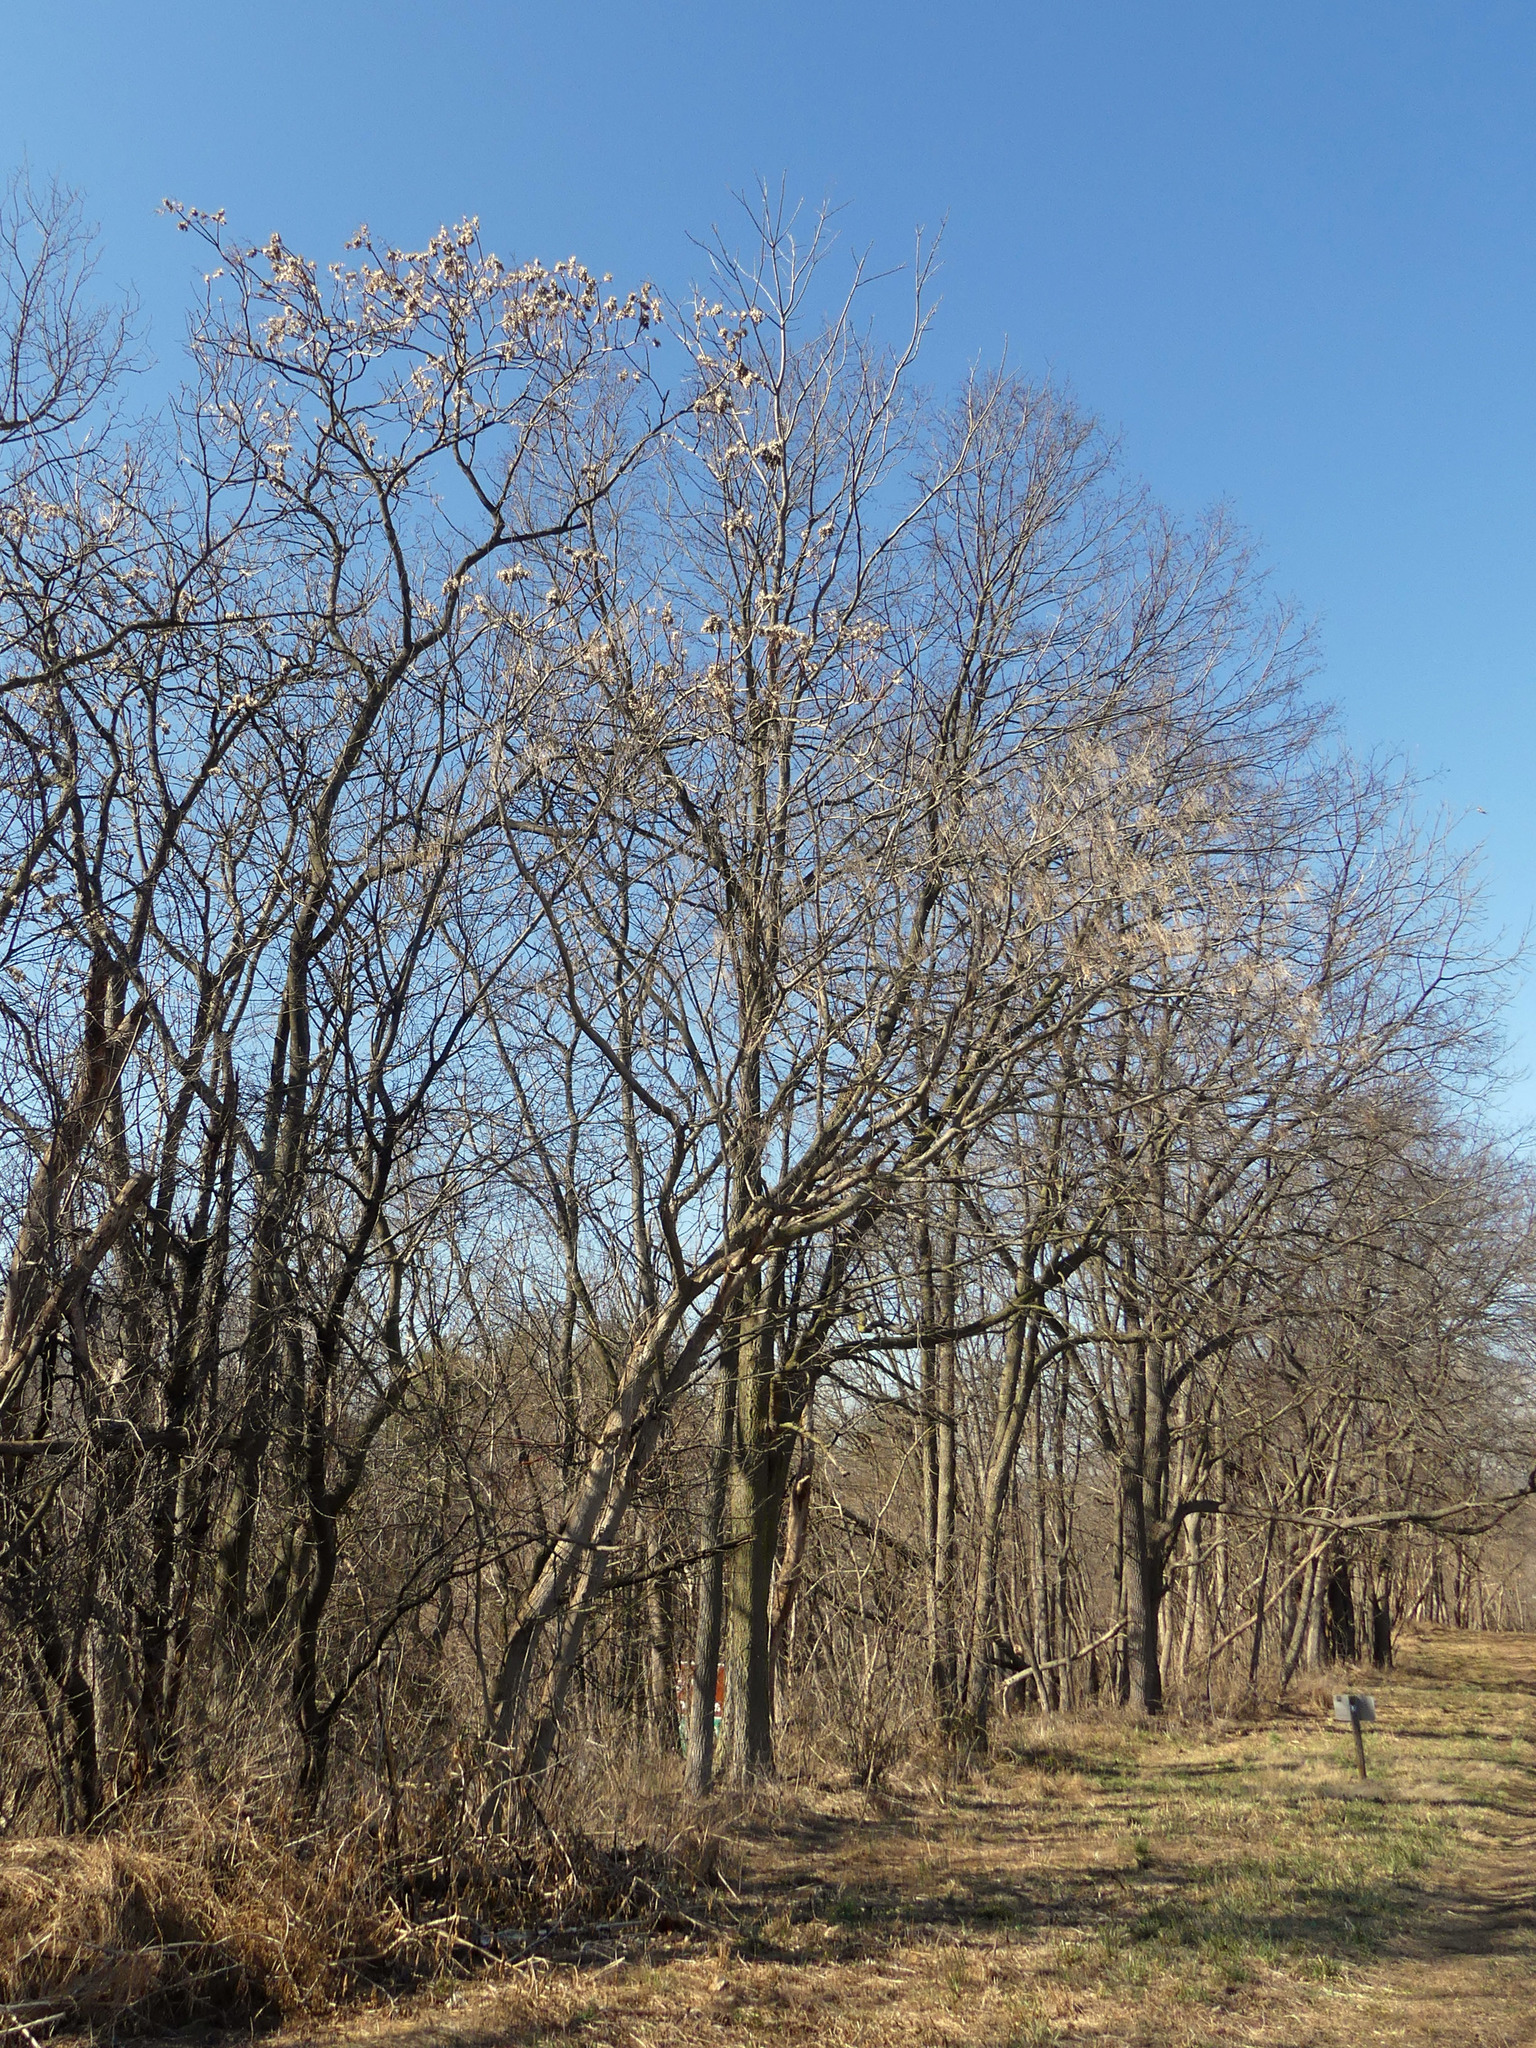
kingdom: Plantae
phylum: Tracheophyta
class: Magnoliopsida
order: Sapindales
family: Simaroubaceae
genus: Ailanthus
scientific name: Ailanthus altissima
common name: Tree-of-heaven
